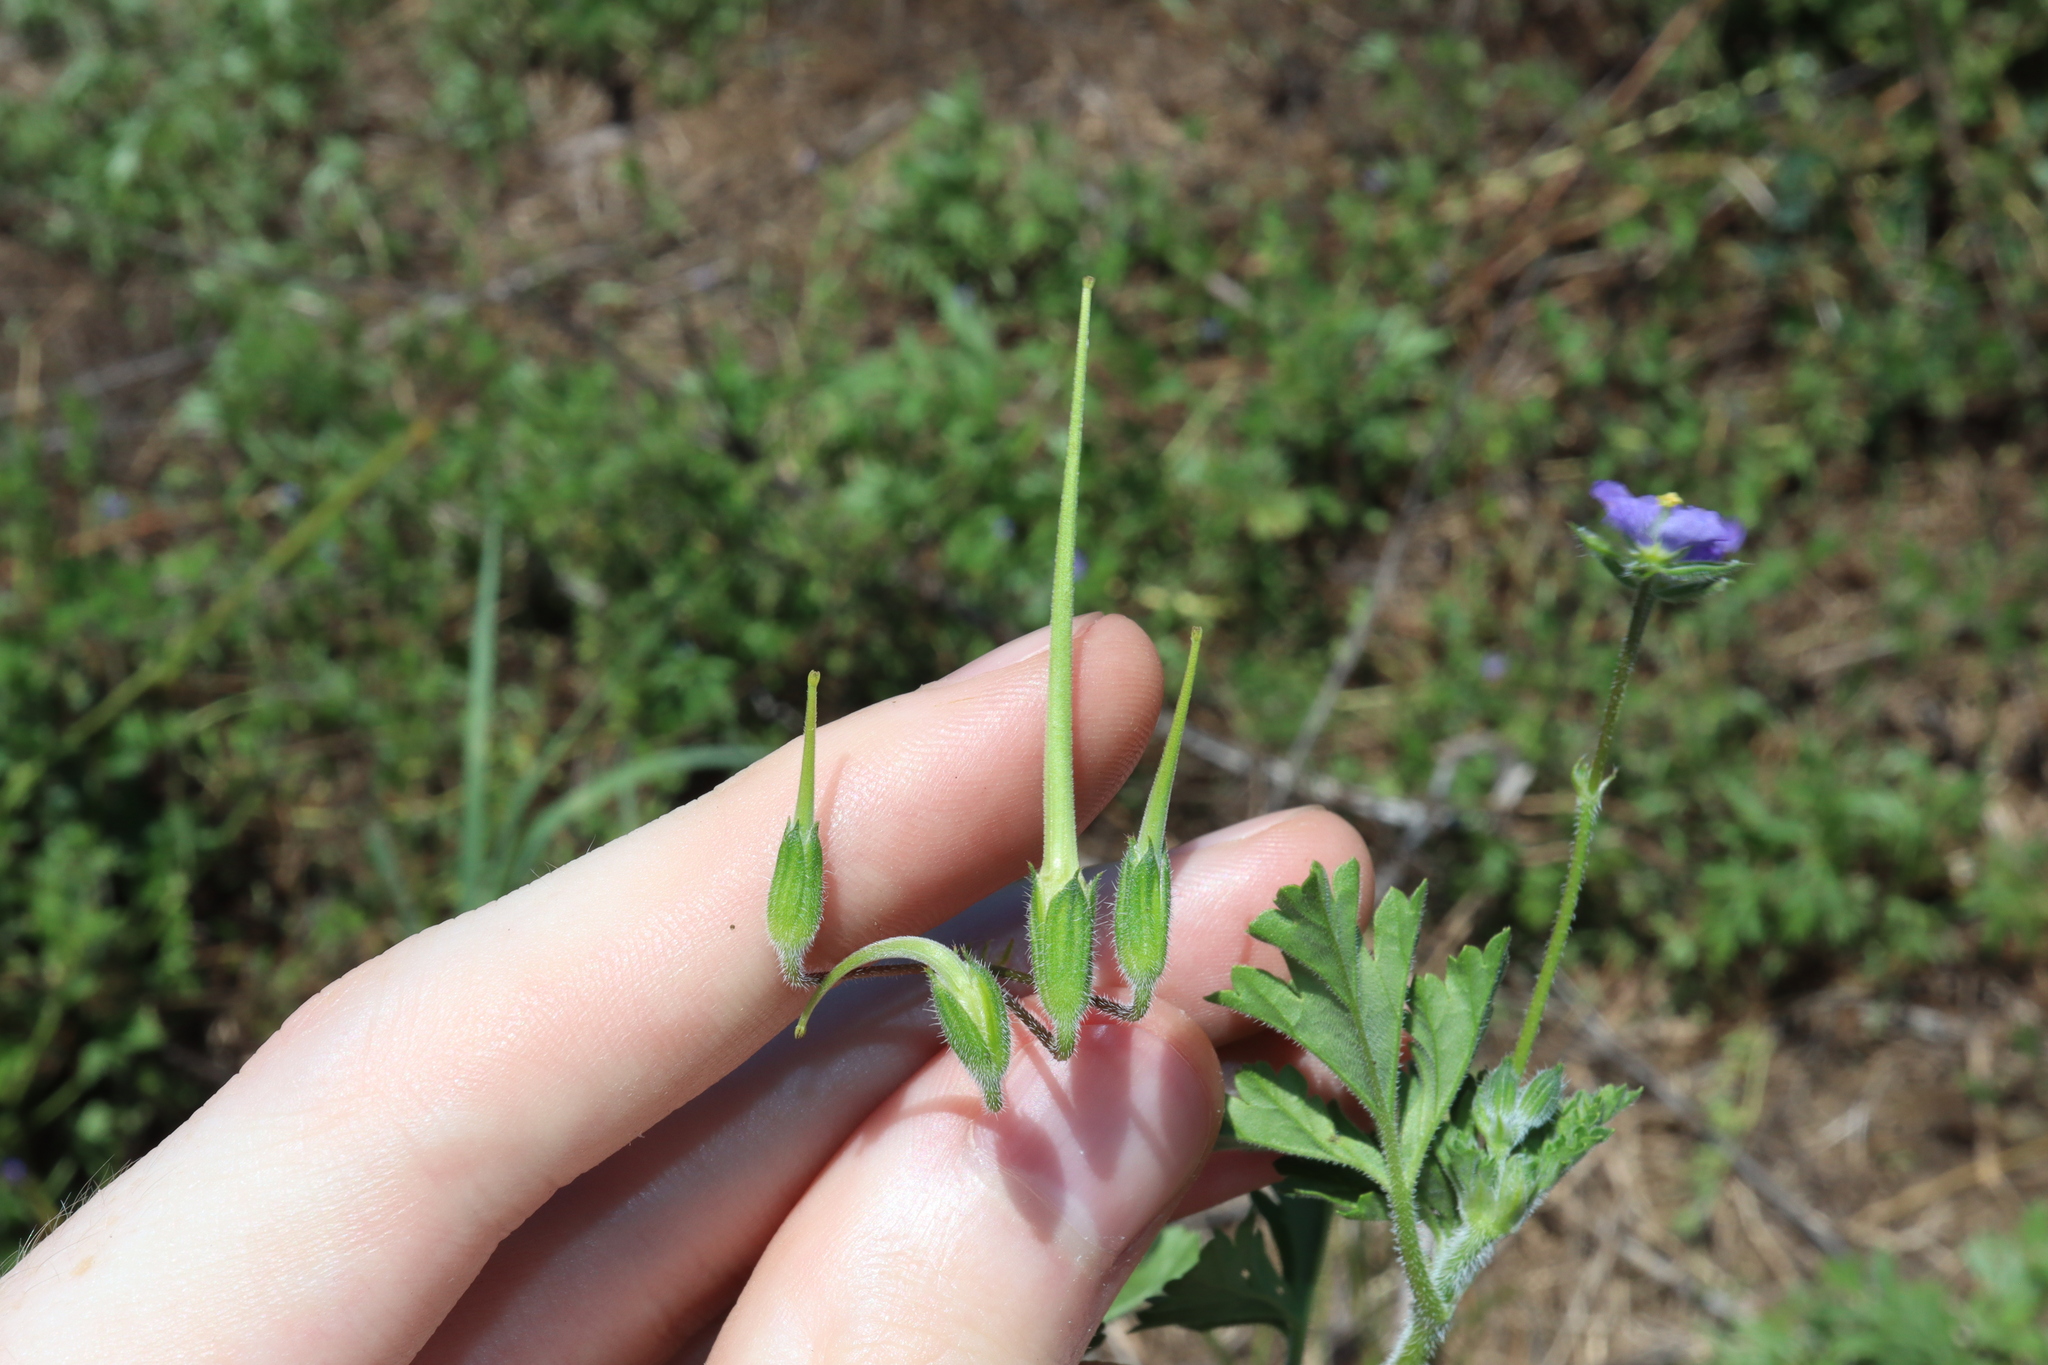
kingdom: Plantae
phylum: Tracheophyta
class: Magnoliopsida
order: Geraniales
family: Geraniaceae
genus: Erodium
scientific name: Erodium crinitum
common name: Eastern stork's-bill
